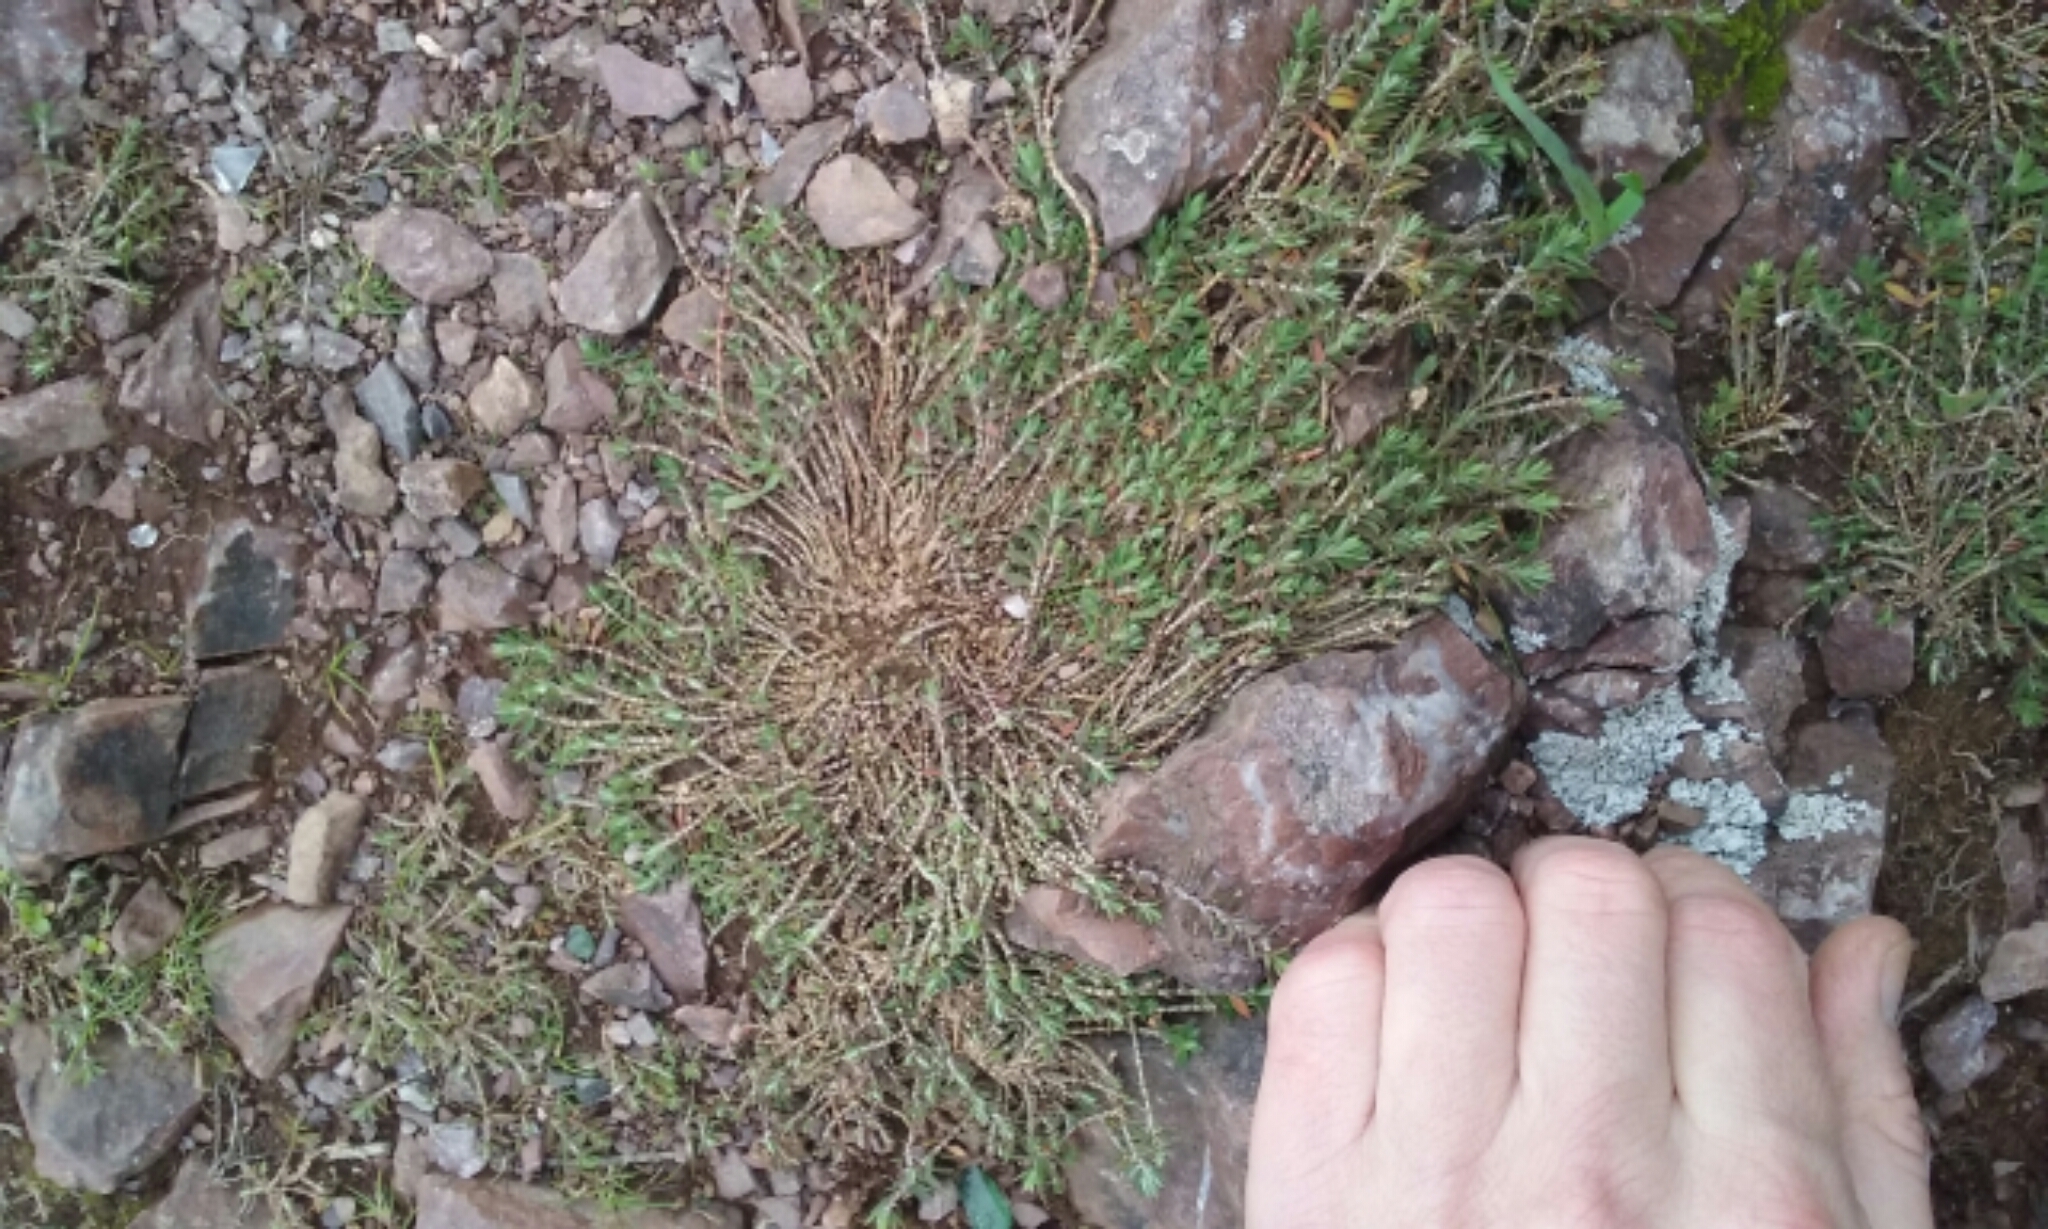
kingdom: Plantae
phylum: Tracheophyta
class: Magnoliopsida
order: Caryophyllales
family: Caryophyllaceae
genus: Paronychia
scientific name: Paronychia franciscana
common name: San francisco nailwort
